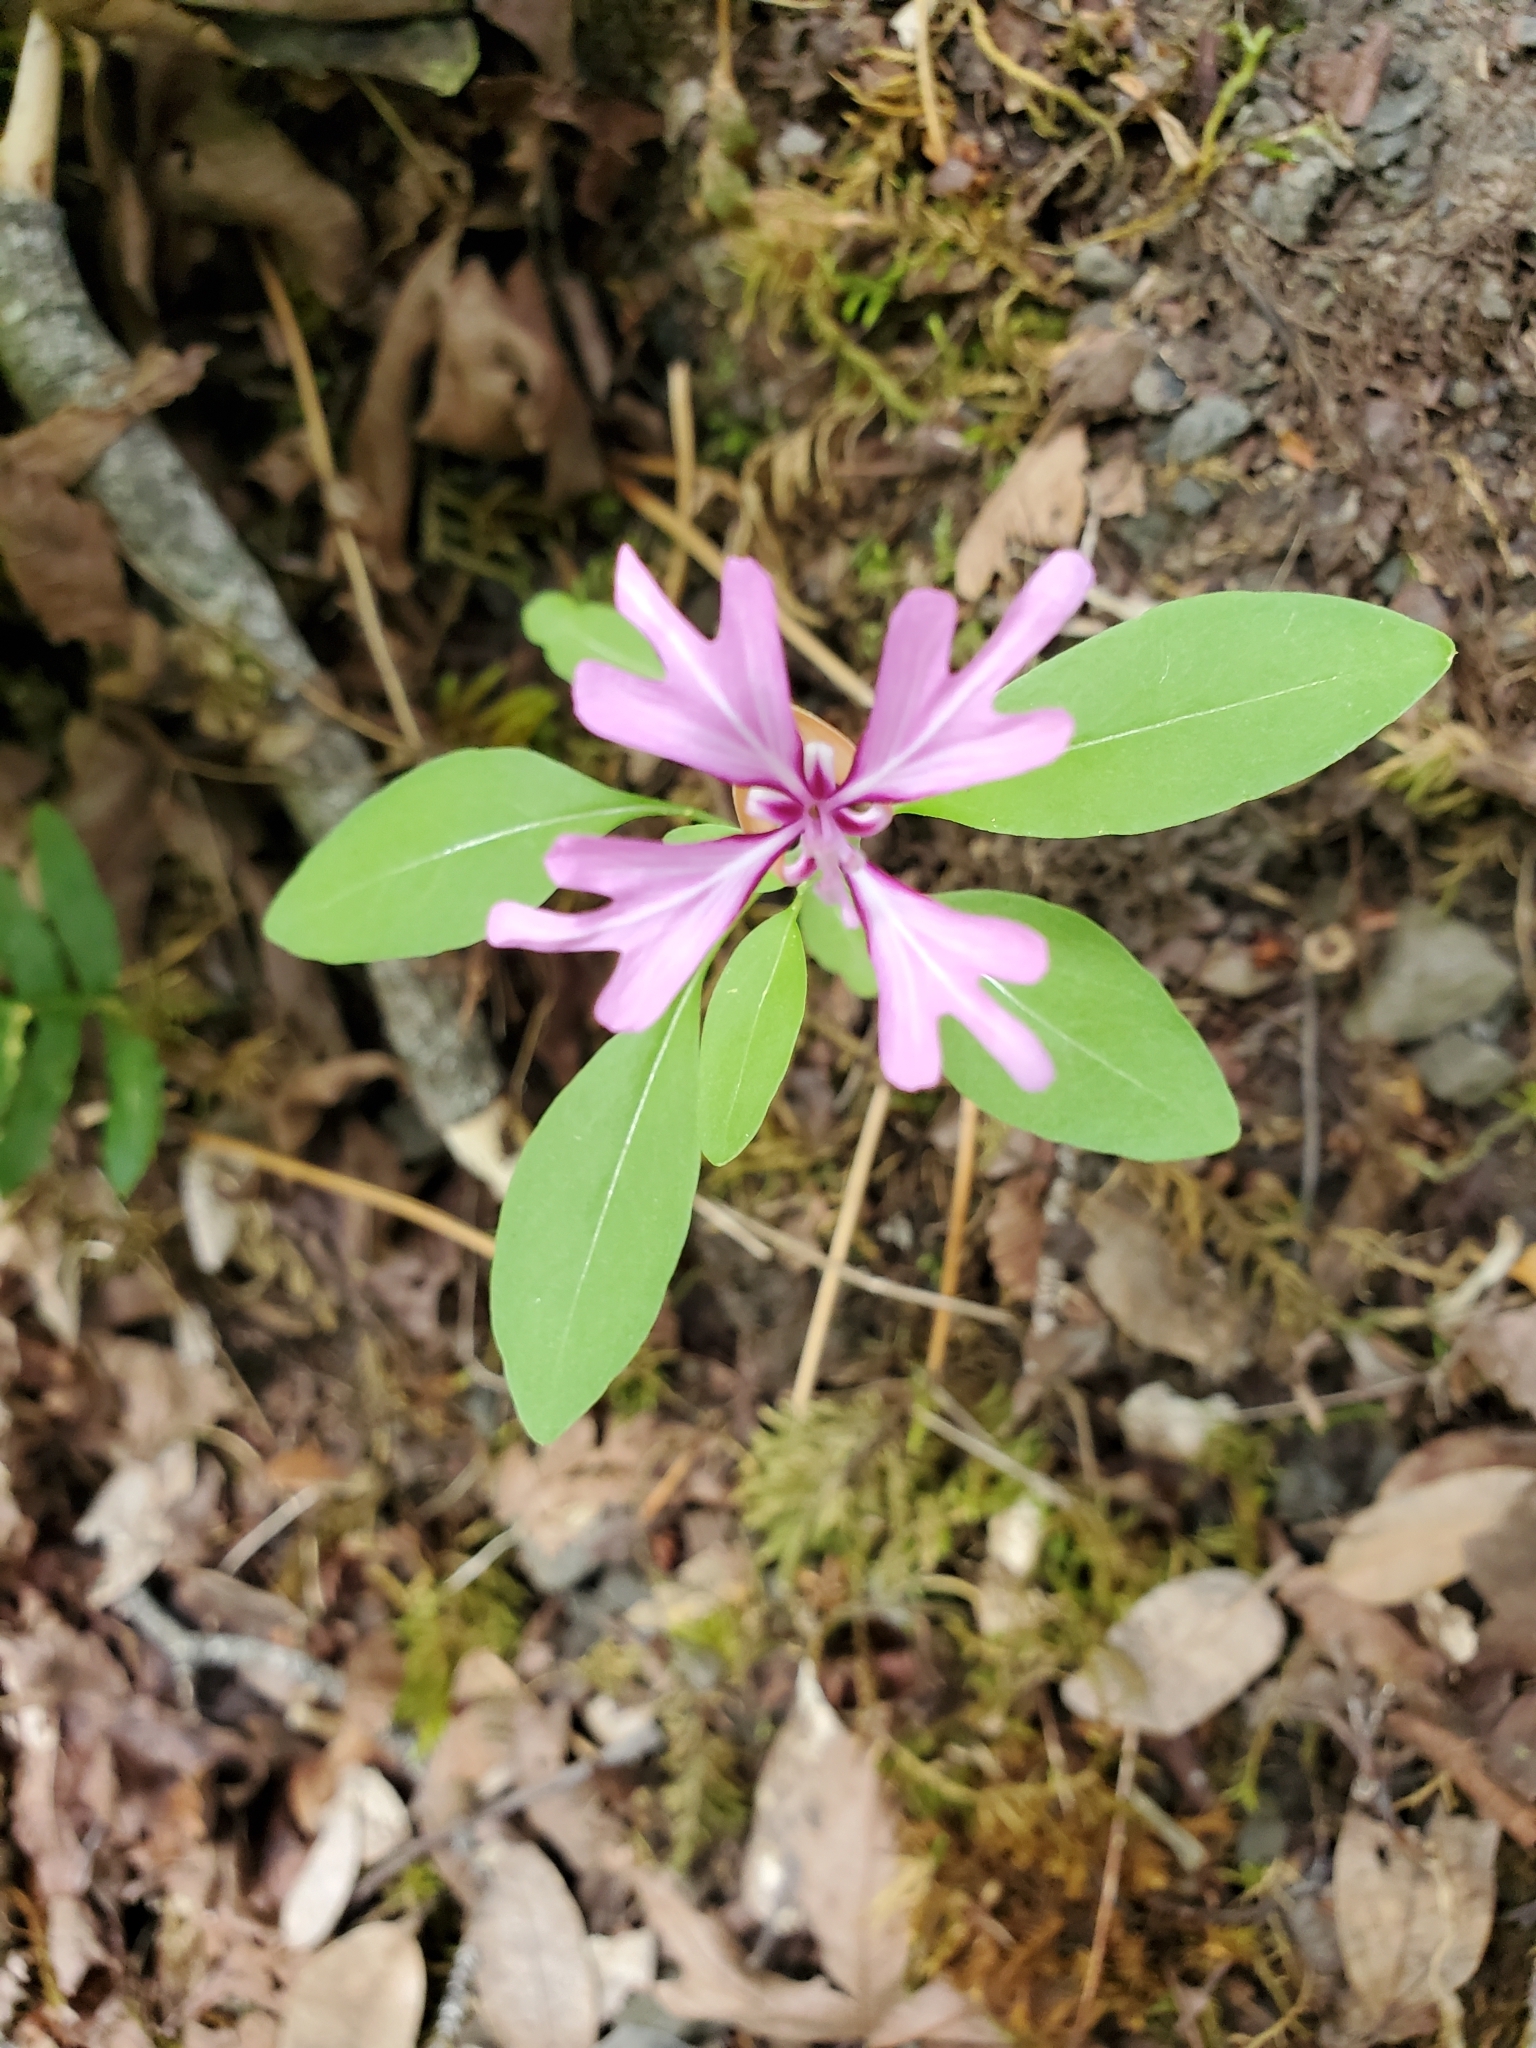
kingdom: Plantae
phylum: Tracheophyta
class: Magnoliopsida
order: Myrtales
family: Onagraceae
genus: Clarkia
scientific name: Clarkia concinna
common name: Red-ribbons
